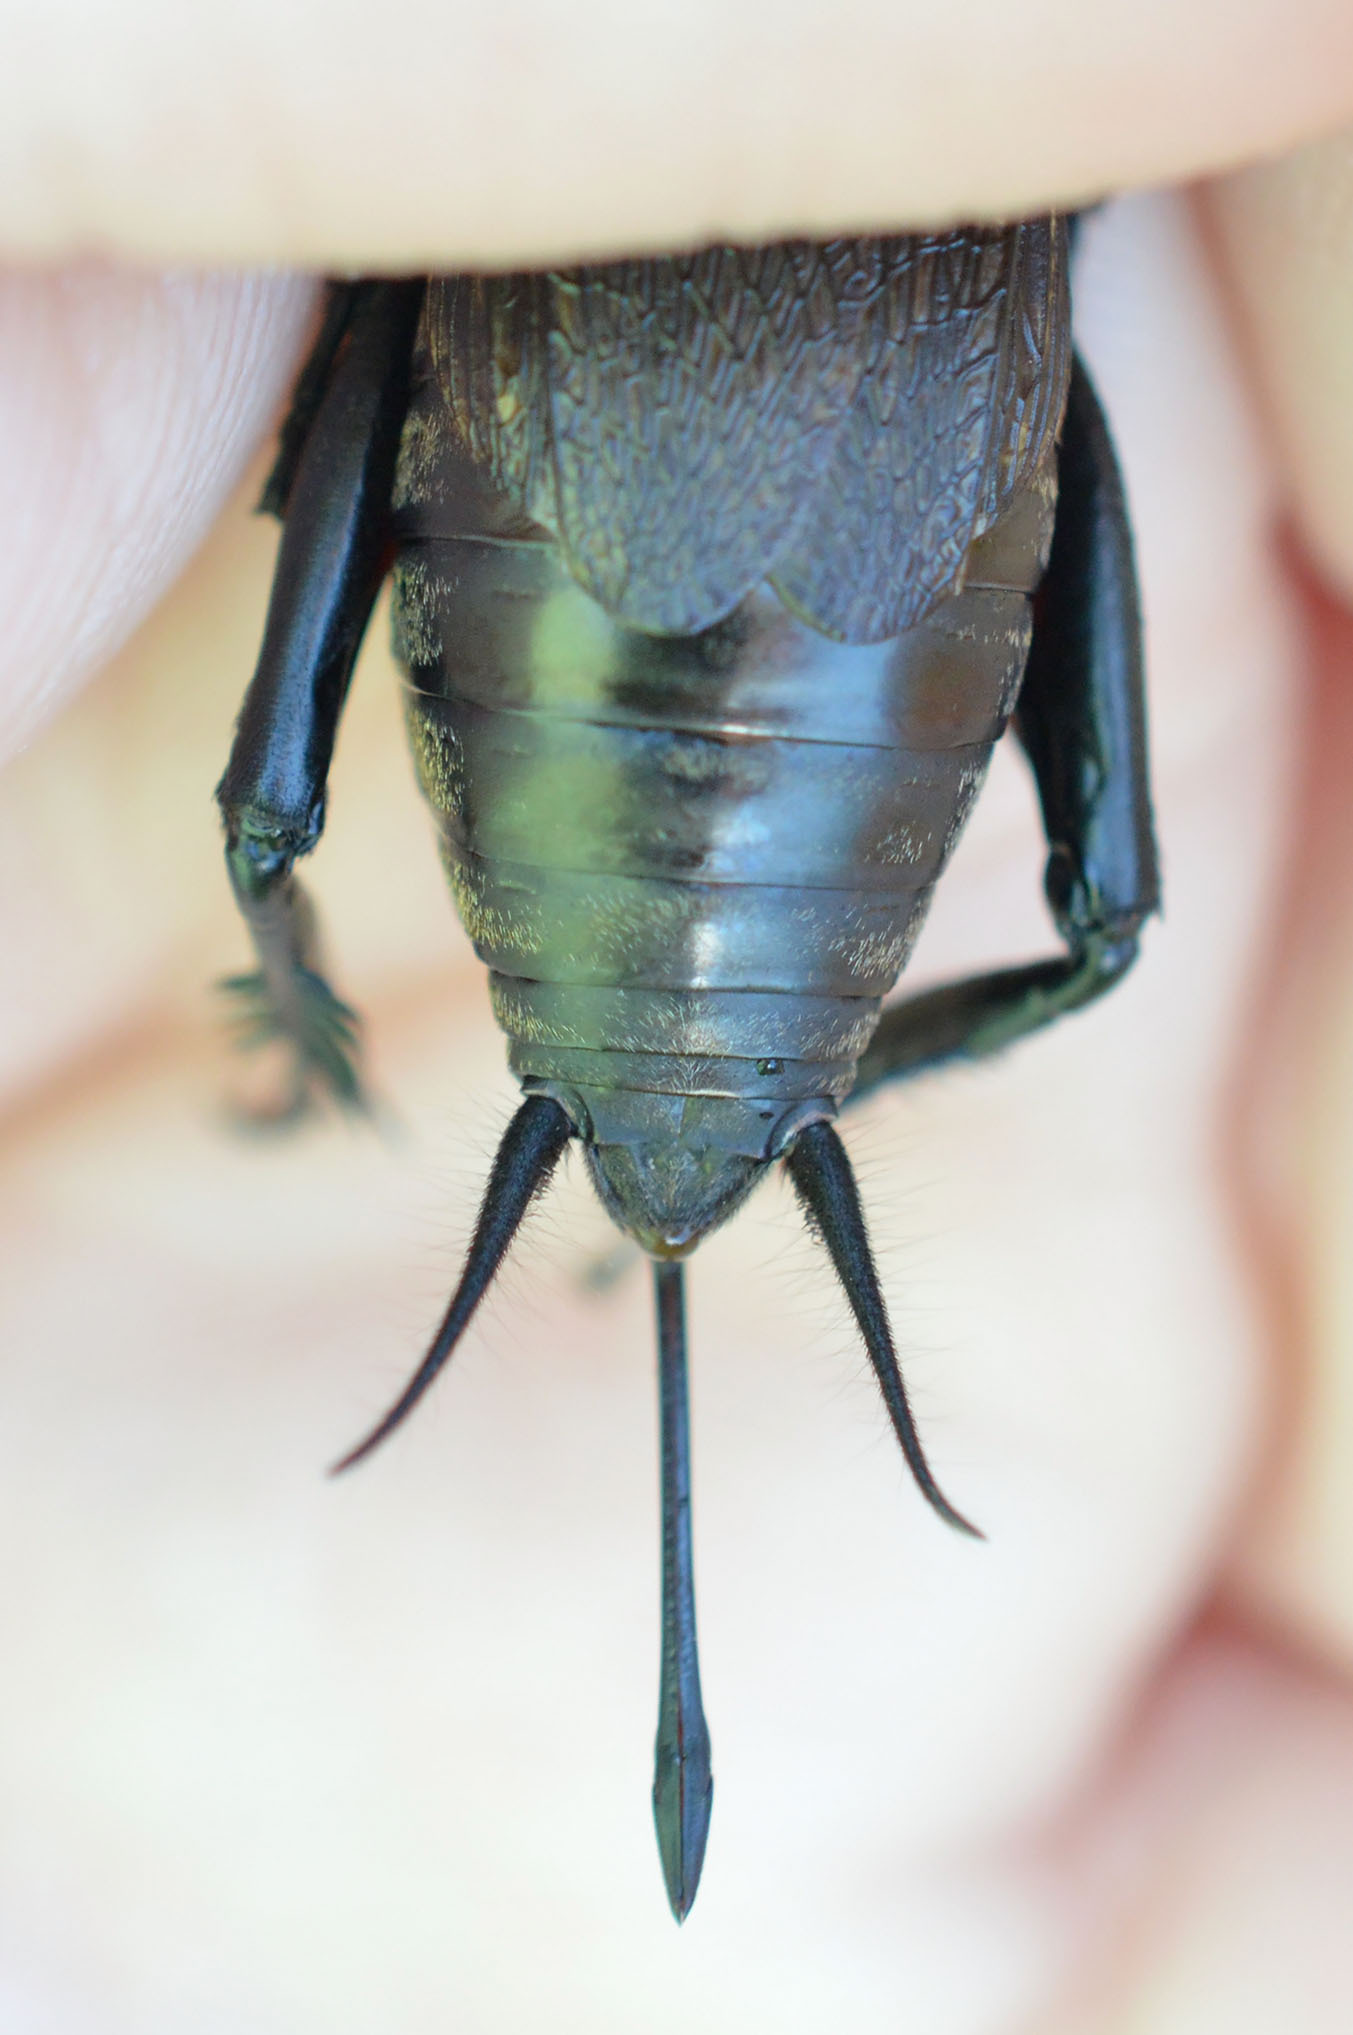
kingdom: Animalia
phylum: Arthropoda
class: Insecta
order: Orthoptera
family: Gryllidae
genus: Gryllus
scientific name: Gryllus campestris
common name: Field cricket
